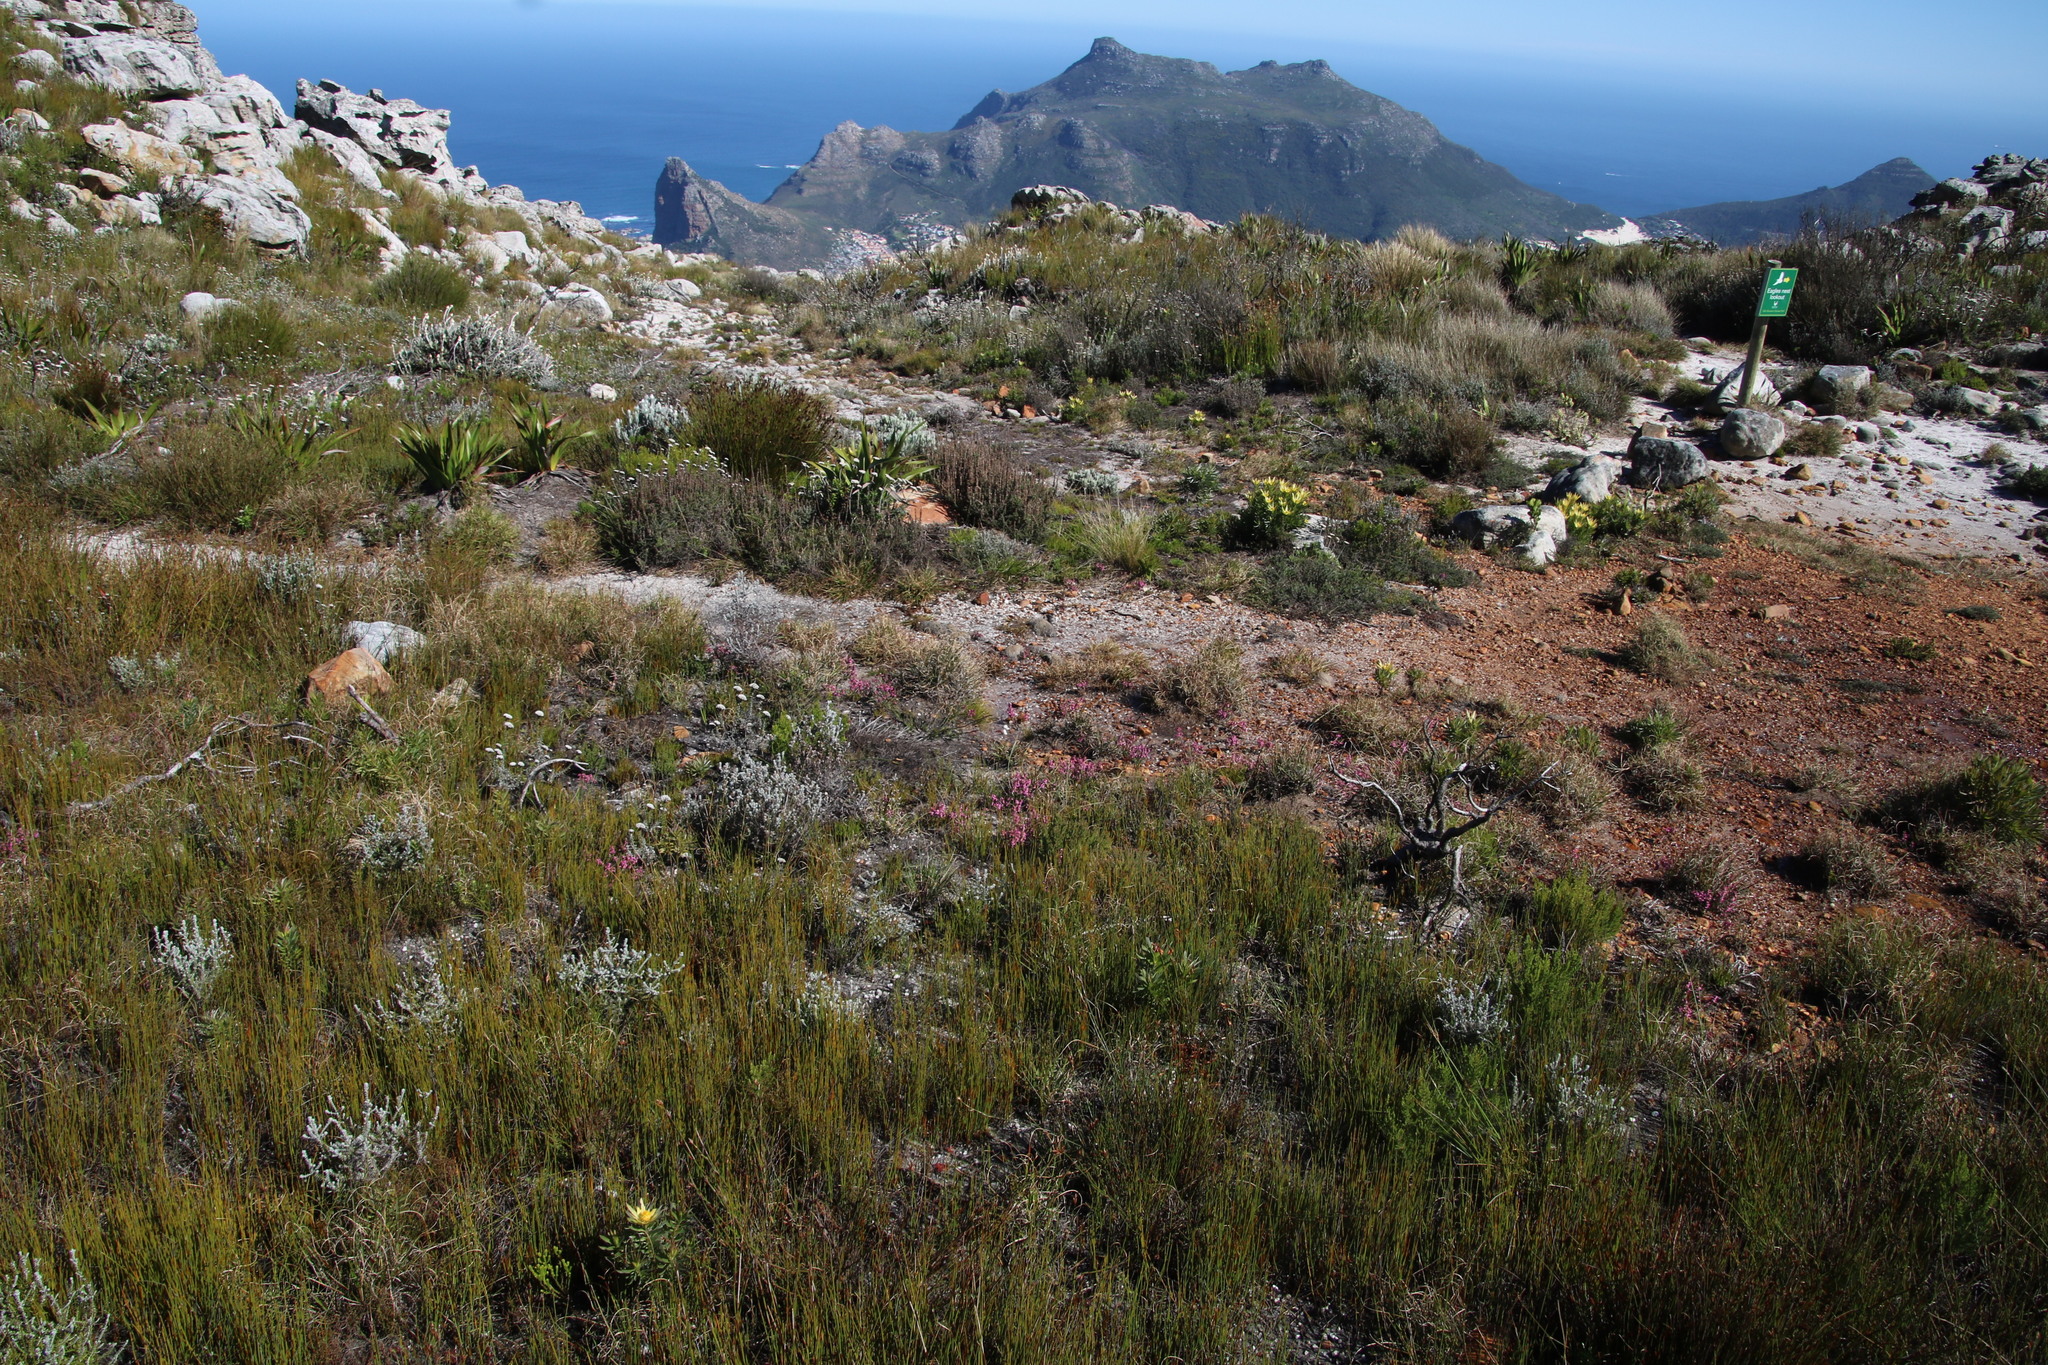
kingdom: Plantae
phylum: Tracheophyta
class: Magnoliopsida
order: Ericales
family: Ericaceae
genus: Erica
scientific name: Erica corifolia
